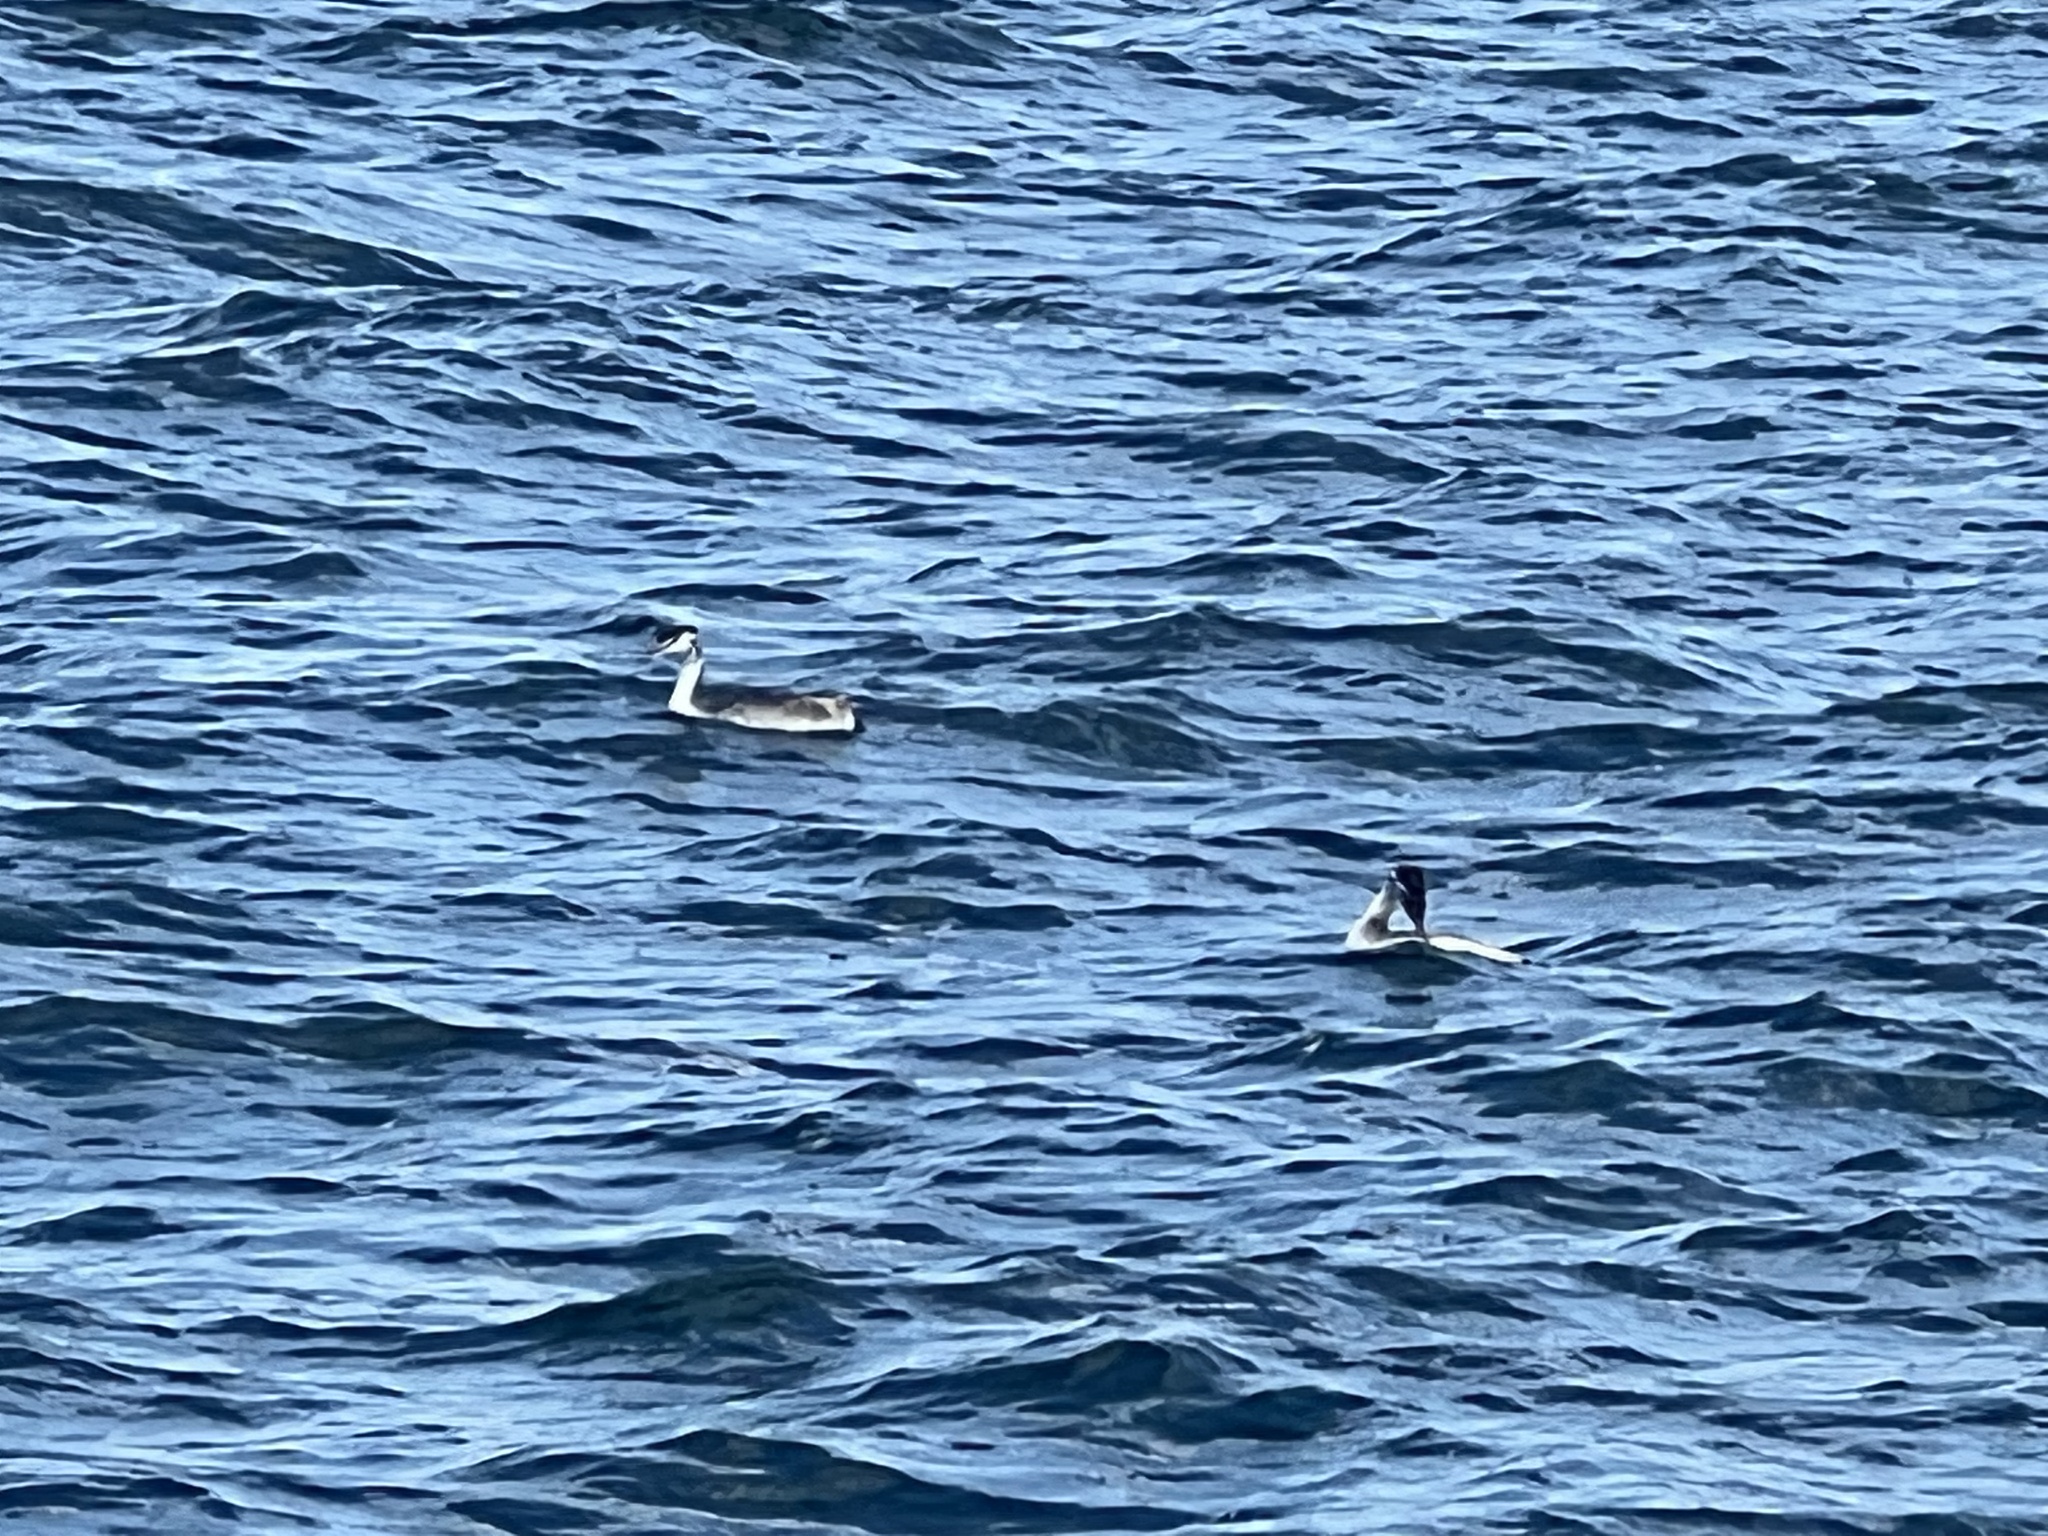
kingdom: Animalia
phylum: Chordata
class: Aves
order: Podicipediformes
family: Podicipedidae
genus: Podiceps
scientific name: Podiceps cristatus
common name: Great crested grebe
